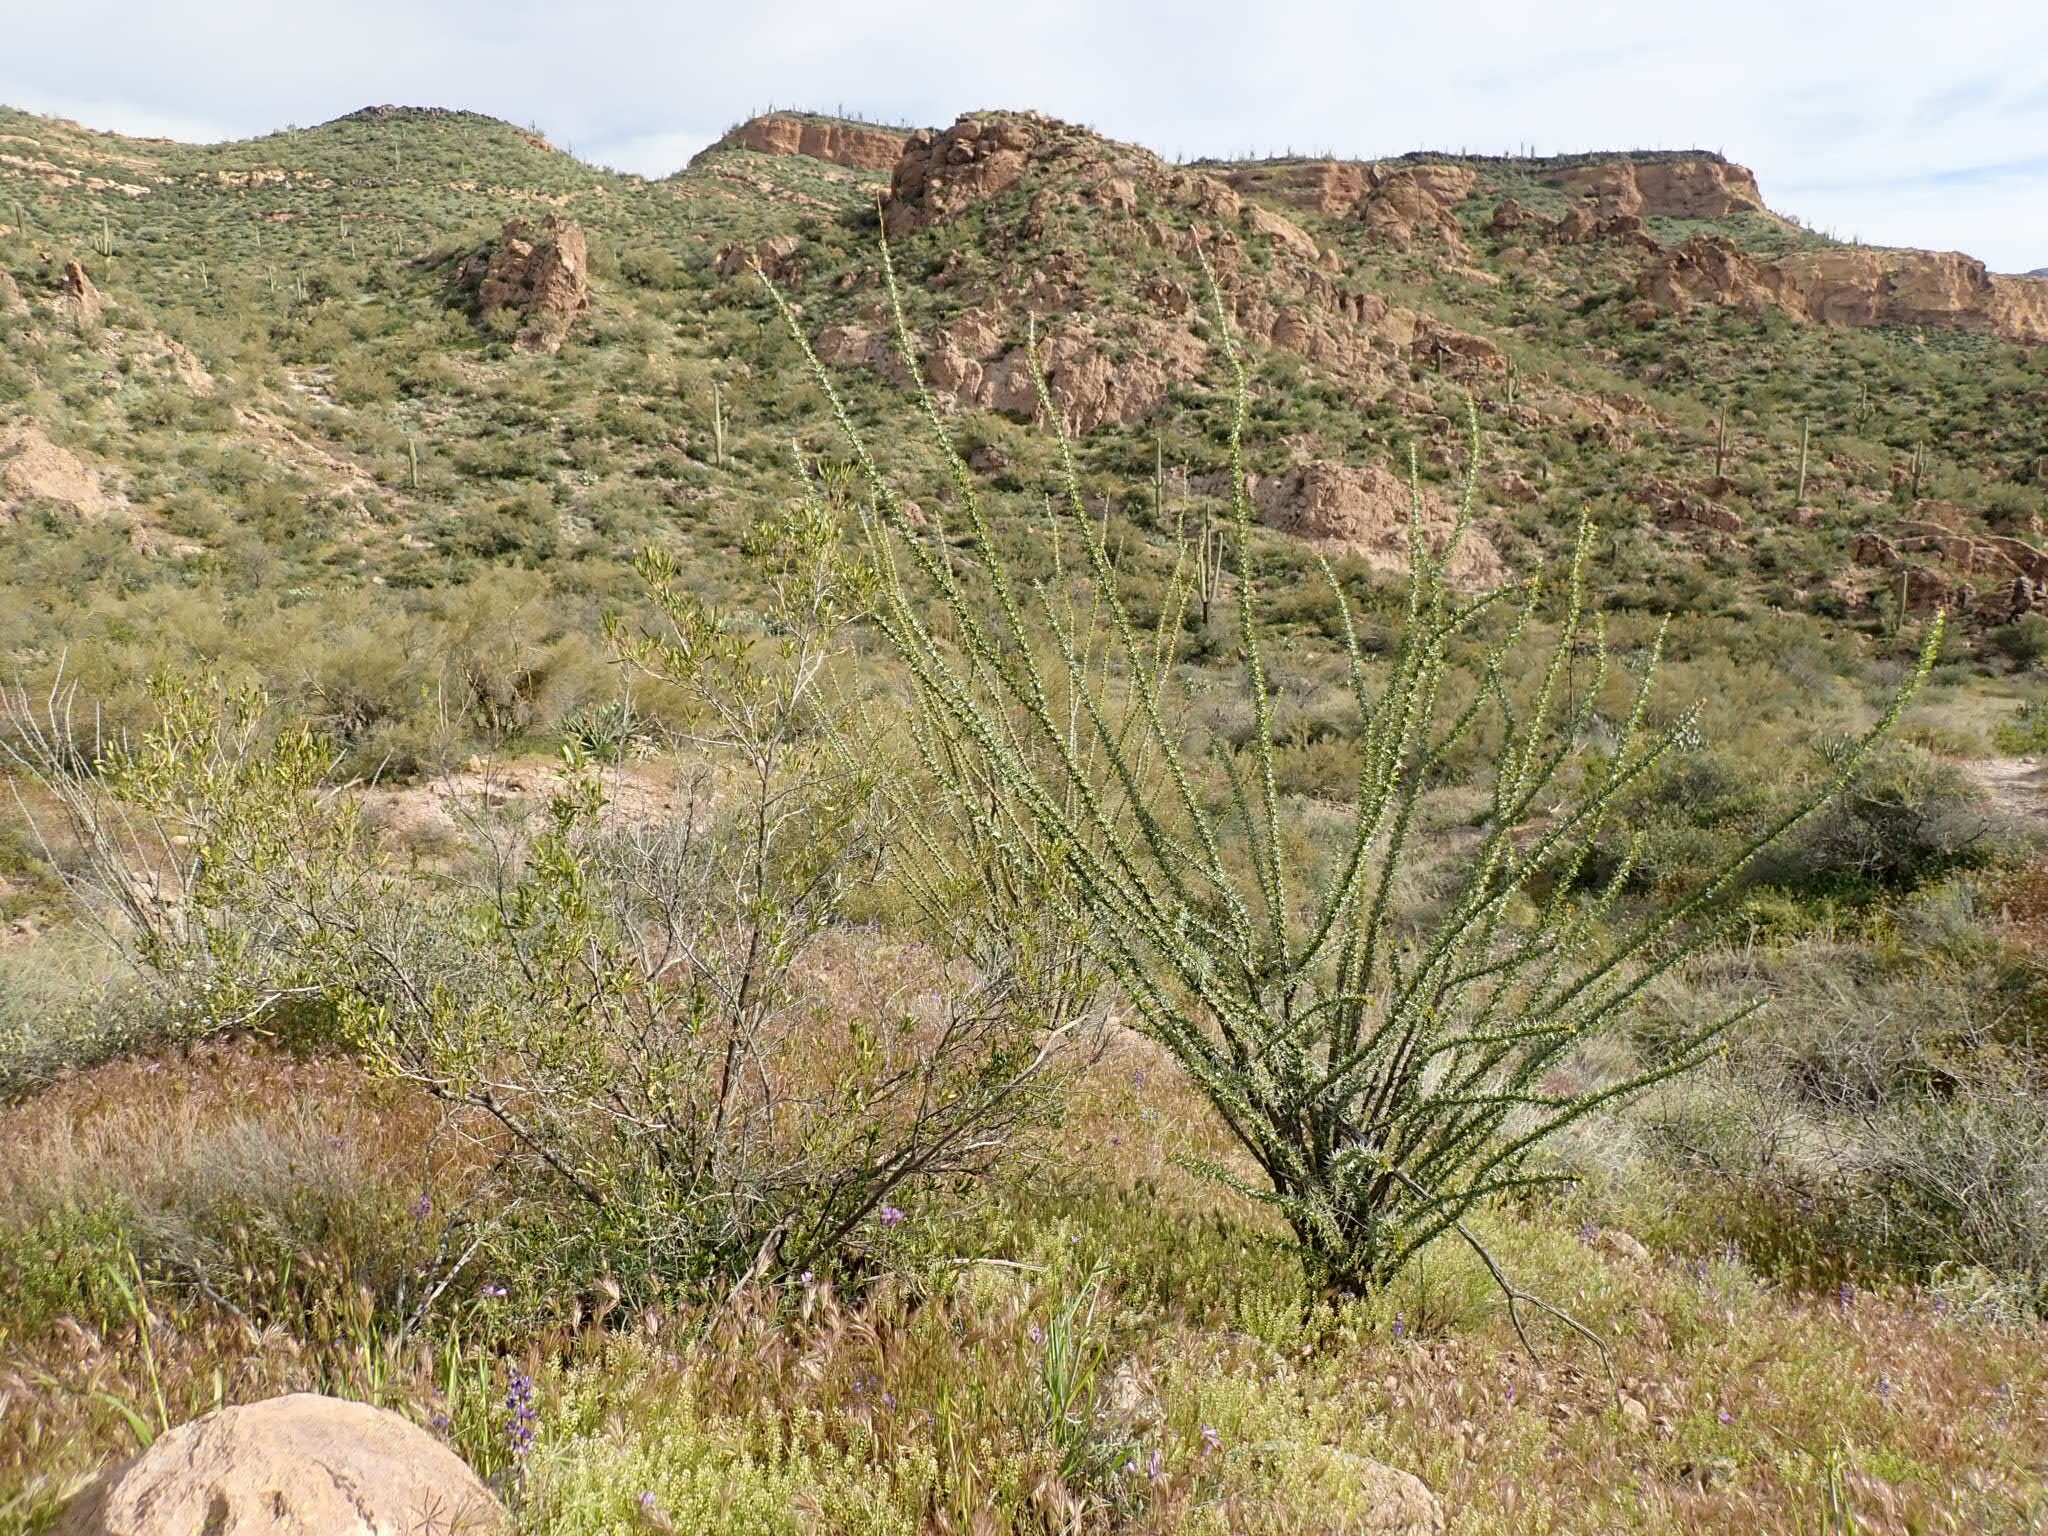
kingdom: Plantae
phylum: Tracheophyta
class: Magnoliopsida
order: Ericales
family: Fouquieriaceae
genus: Fouquieria
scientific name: Fouquieria splendens
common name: Vine-cactus
